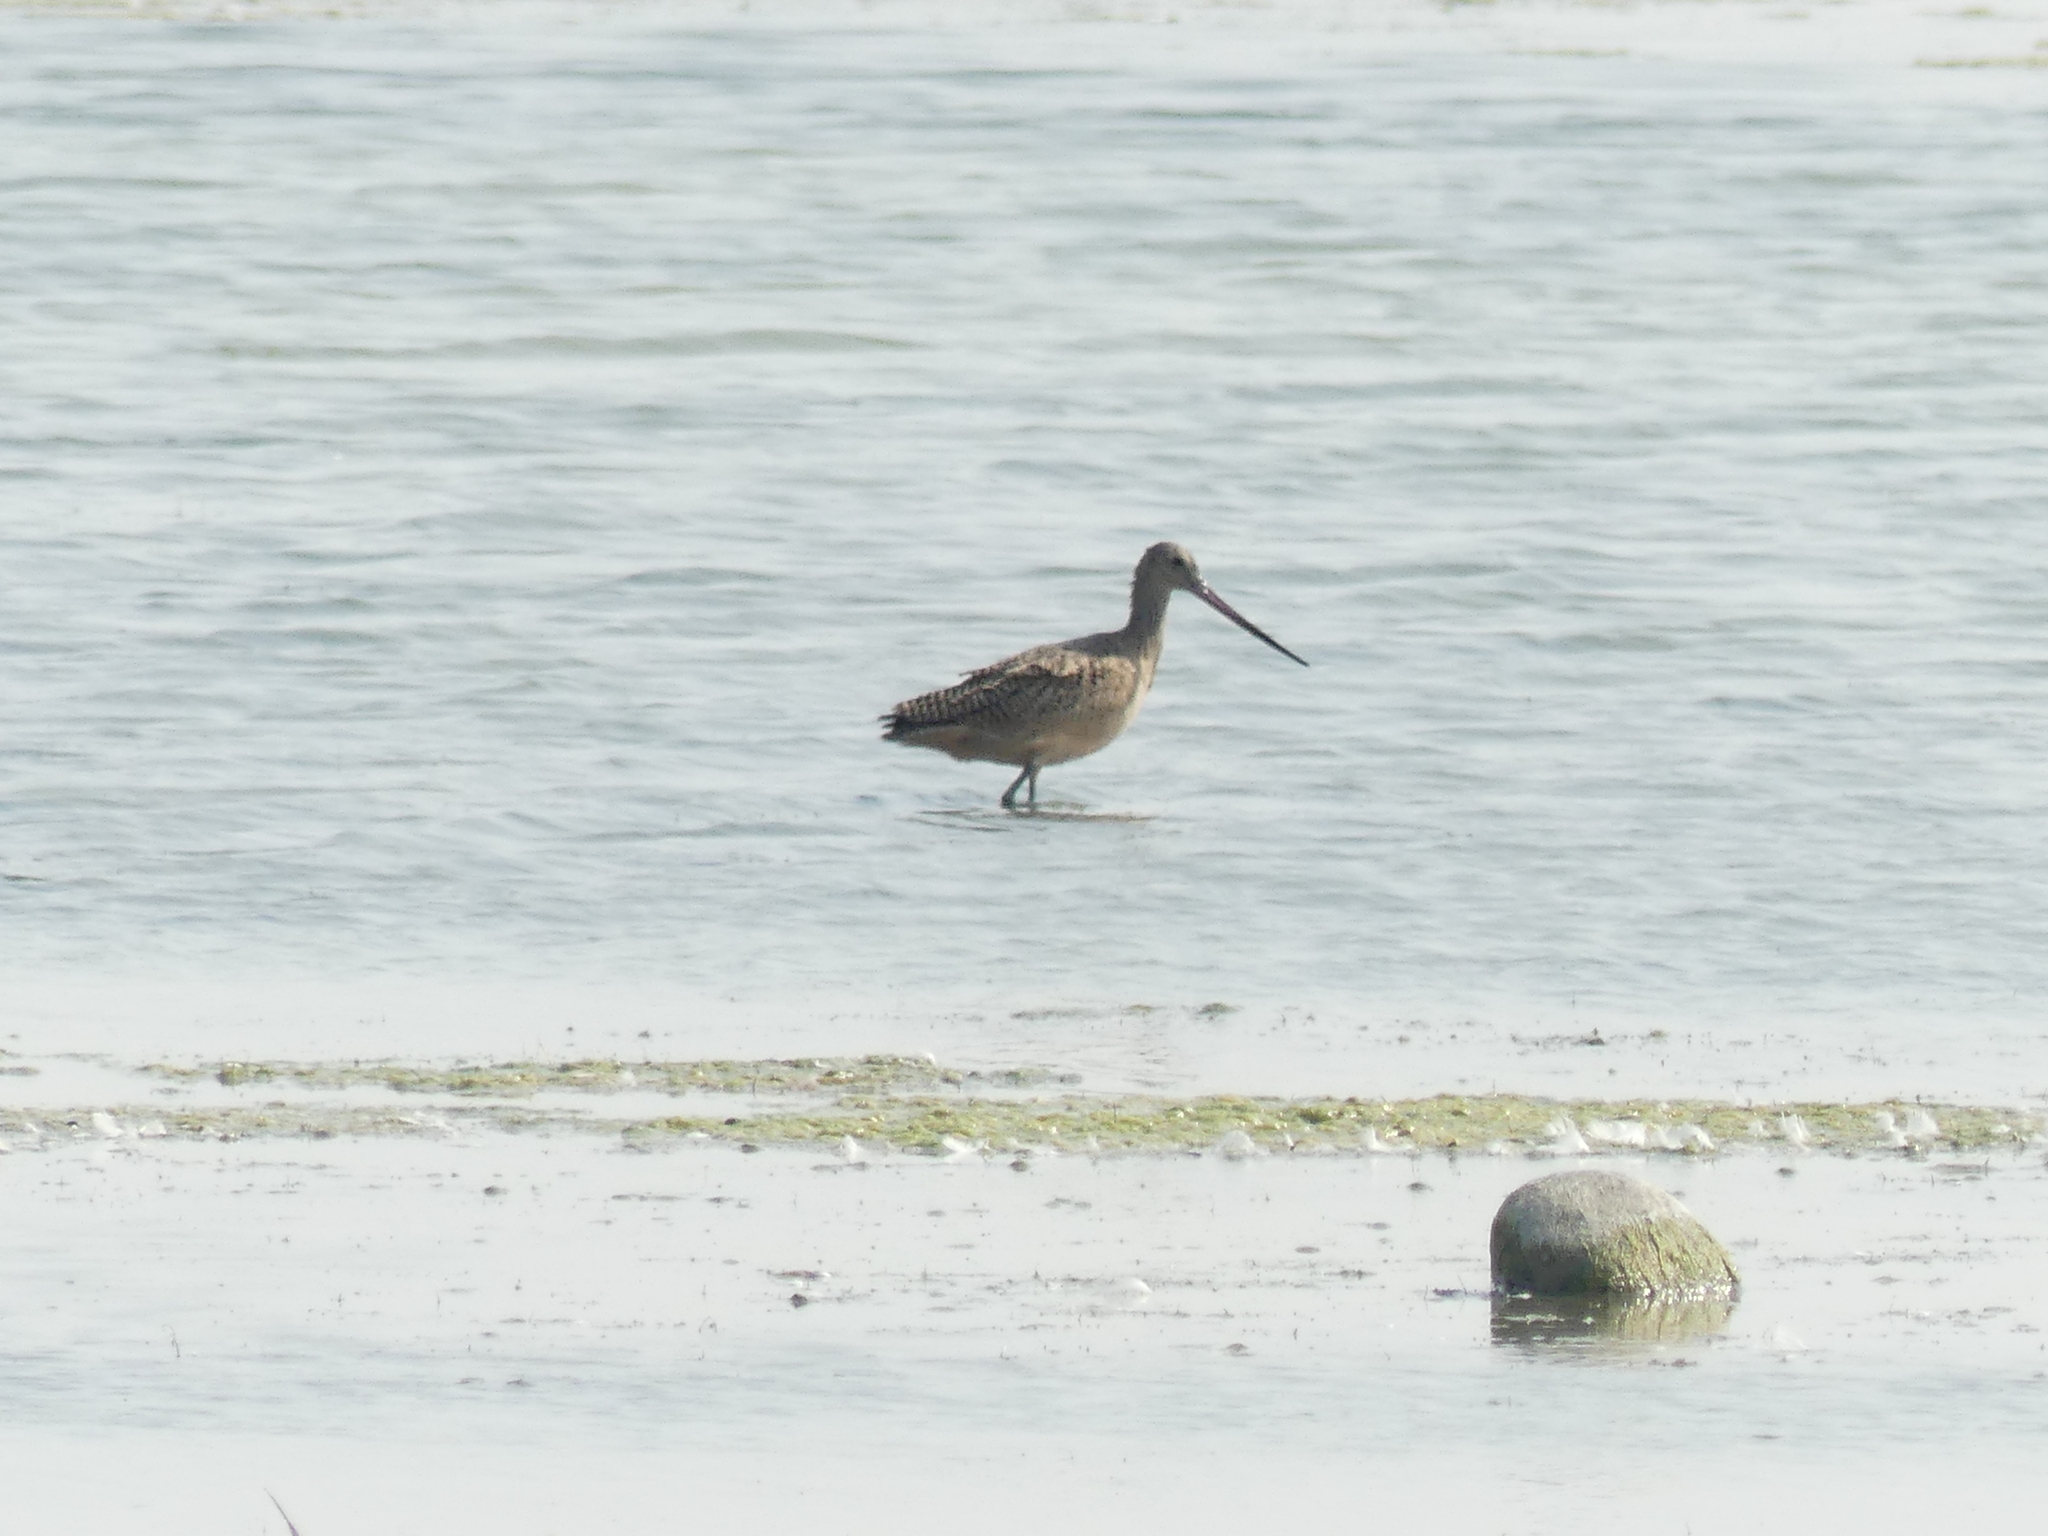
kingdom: Animalia
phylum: Chordata
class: Aves
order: Charadriiformes
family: Scolopacidae
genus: Limosa
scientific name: Limosa fedoa
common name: Marbled godwit
